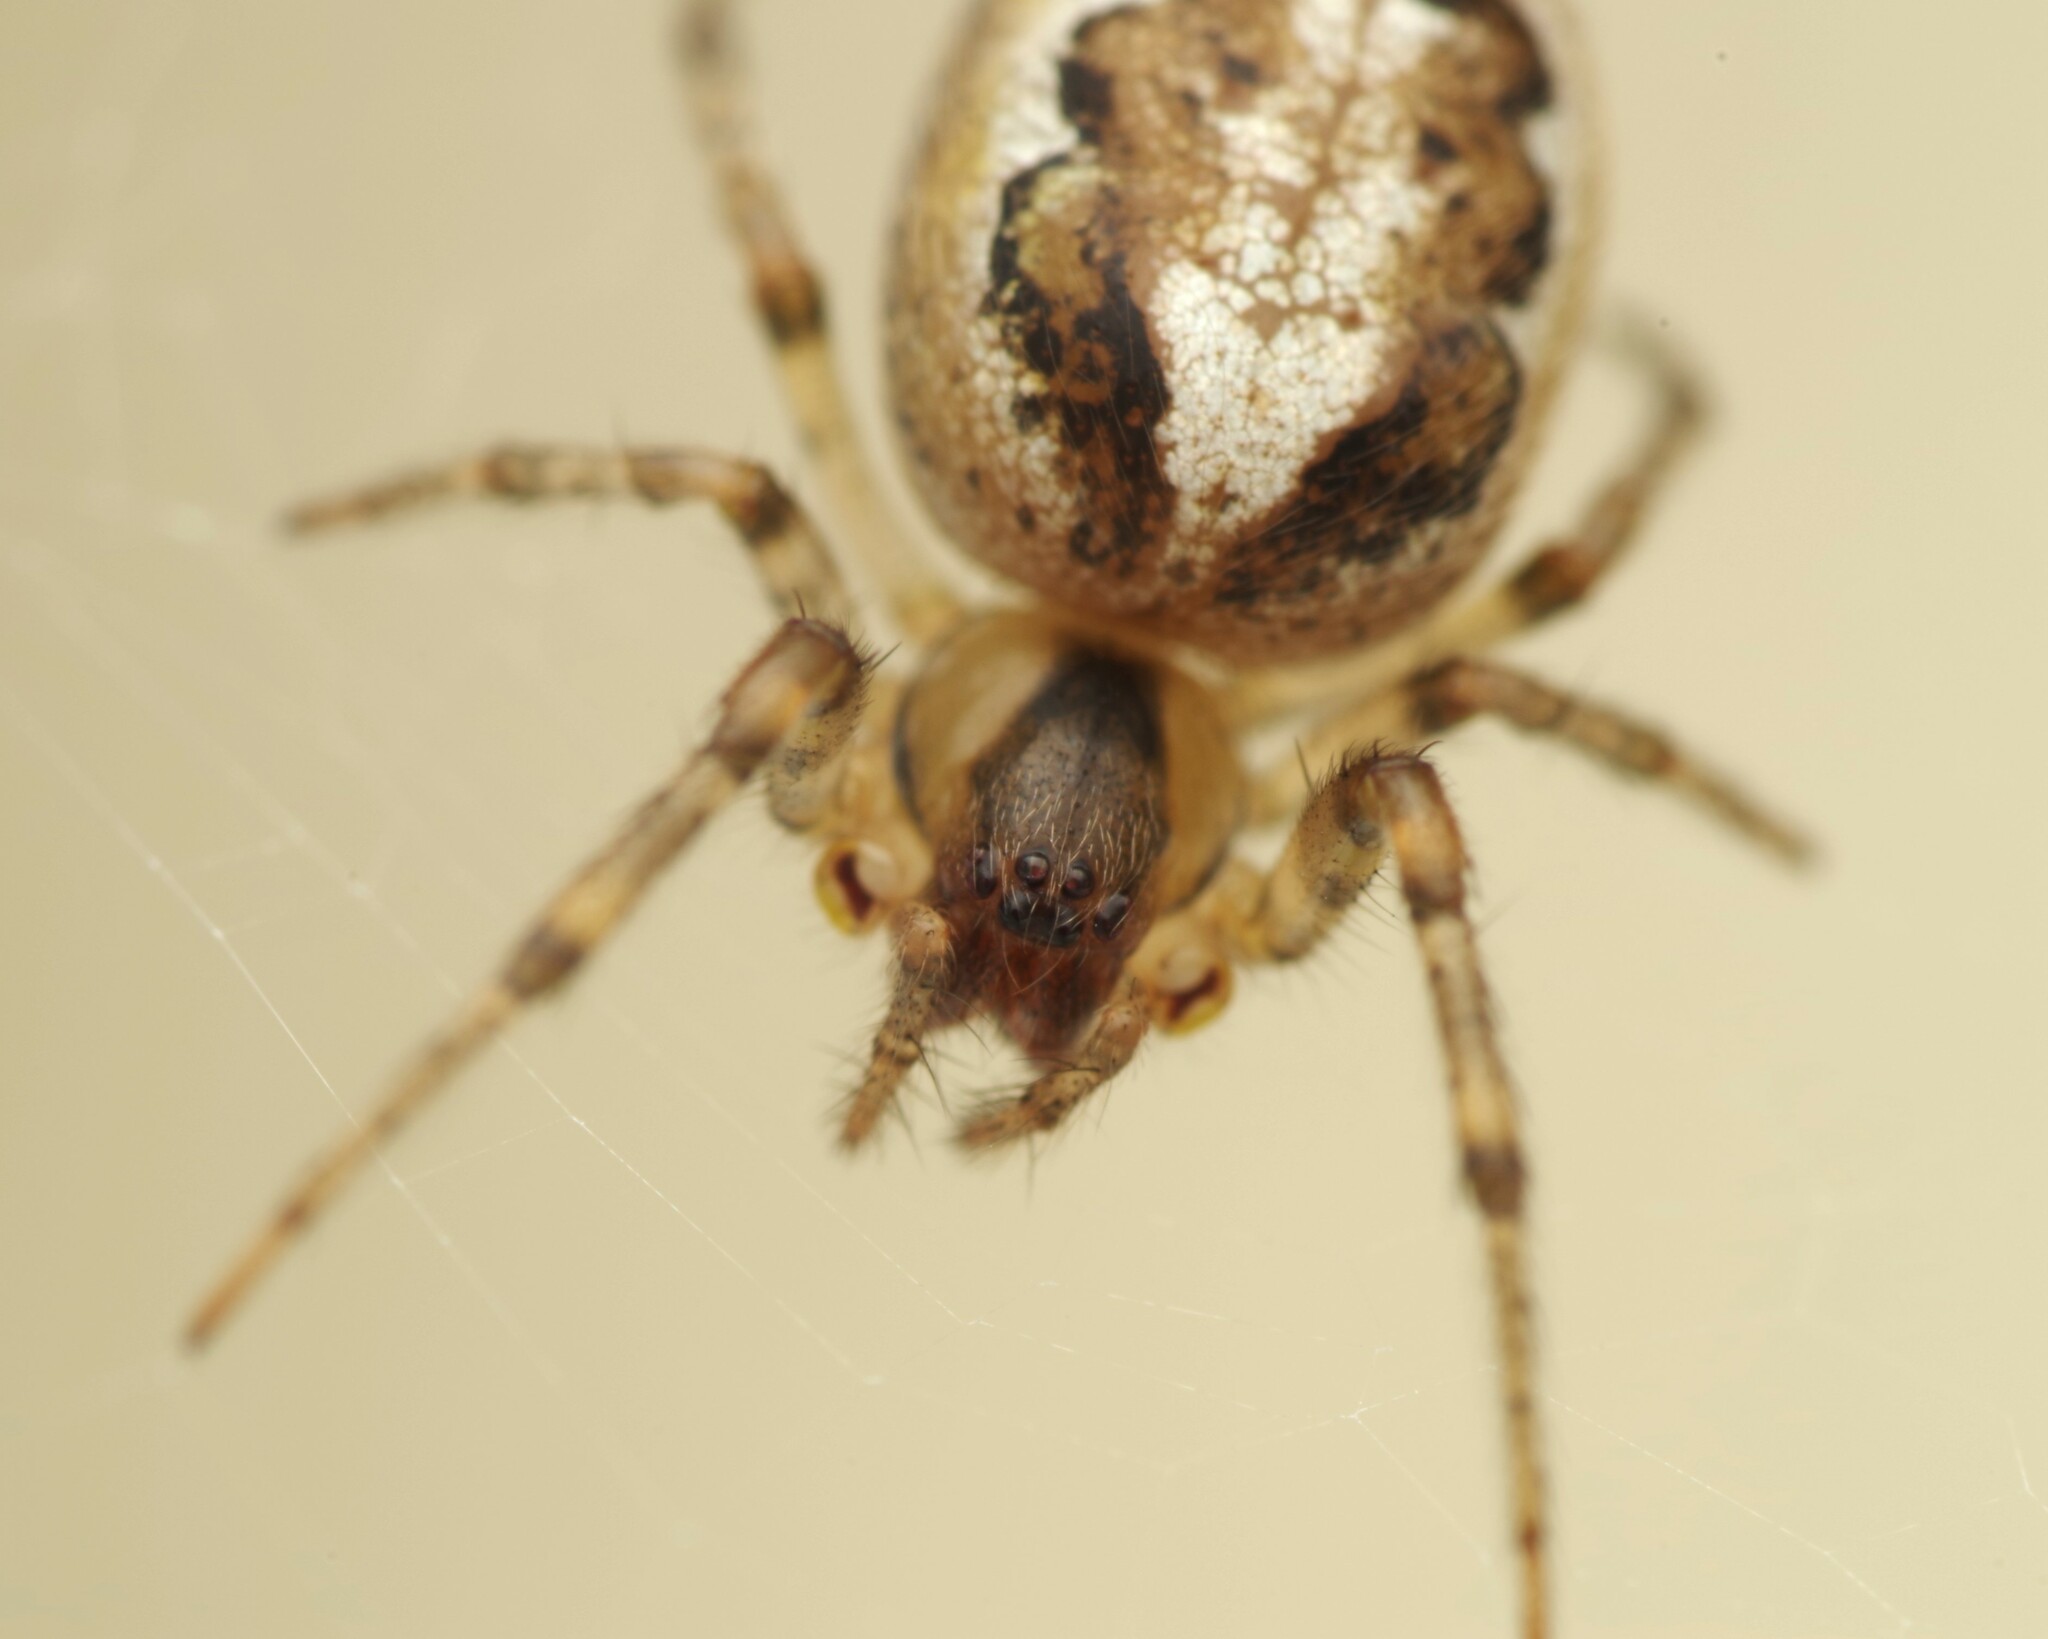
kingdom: Animalia
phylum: Arthropoda
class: Arachnida
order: Araneae
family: Araneidae
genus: Zygiella
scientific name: Zygiella x-notata
